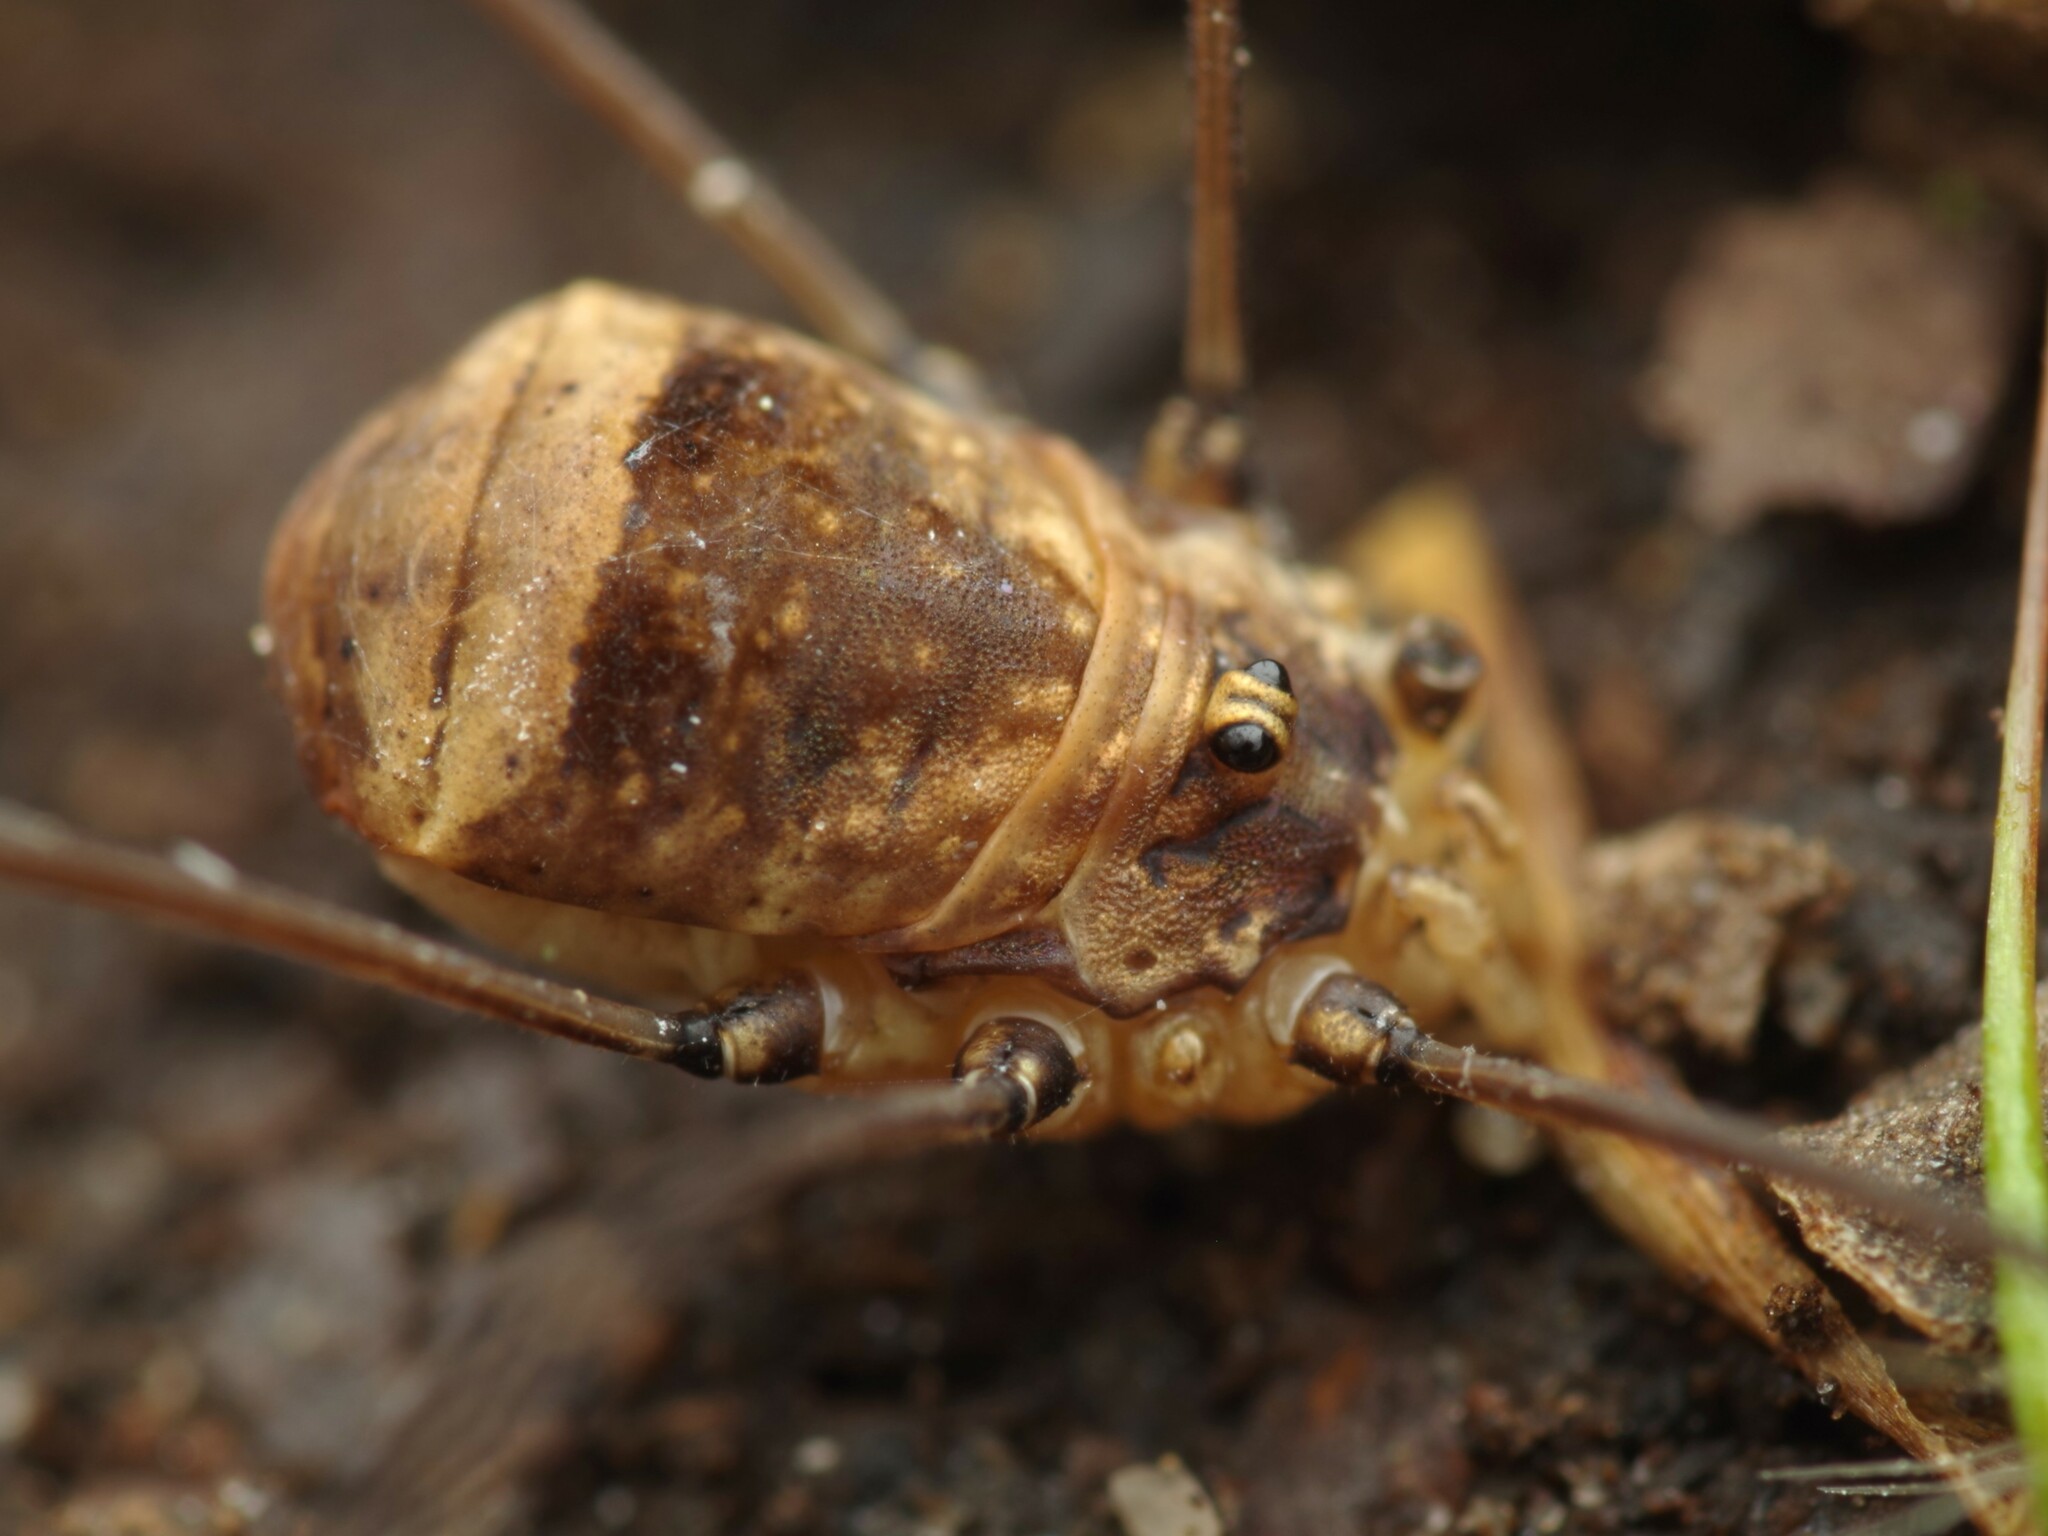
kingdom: Animalia
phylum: Arthropoda
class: Arachnida
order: Opiliones
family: Sclerosomatidae
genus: Leiobunum
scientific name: Leiobunum blackwalli
